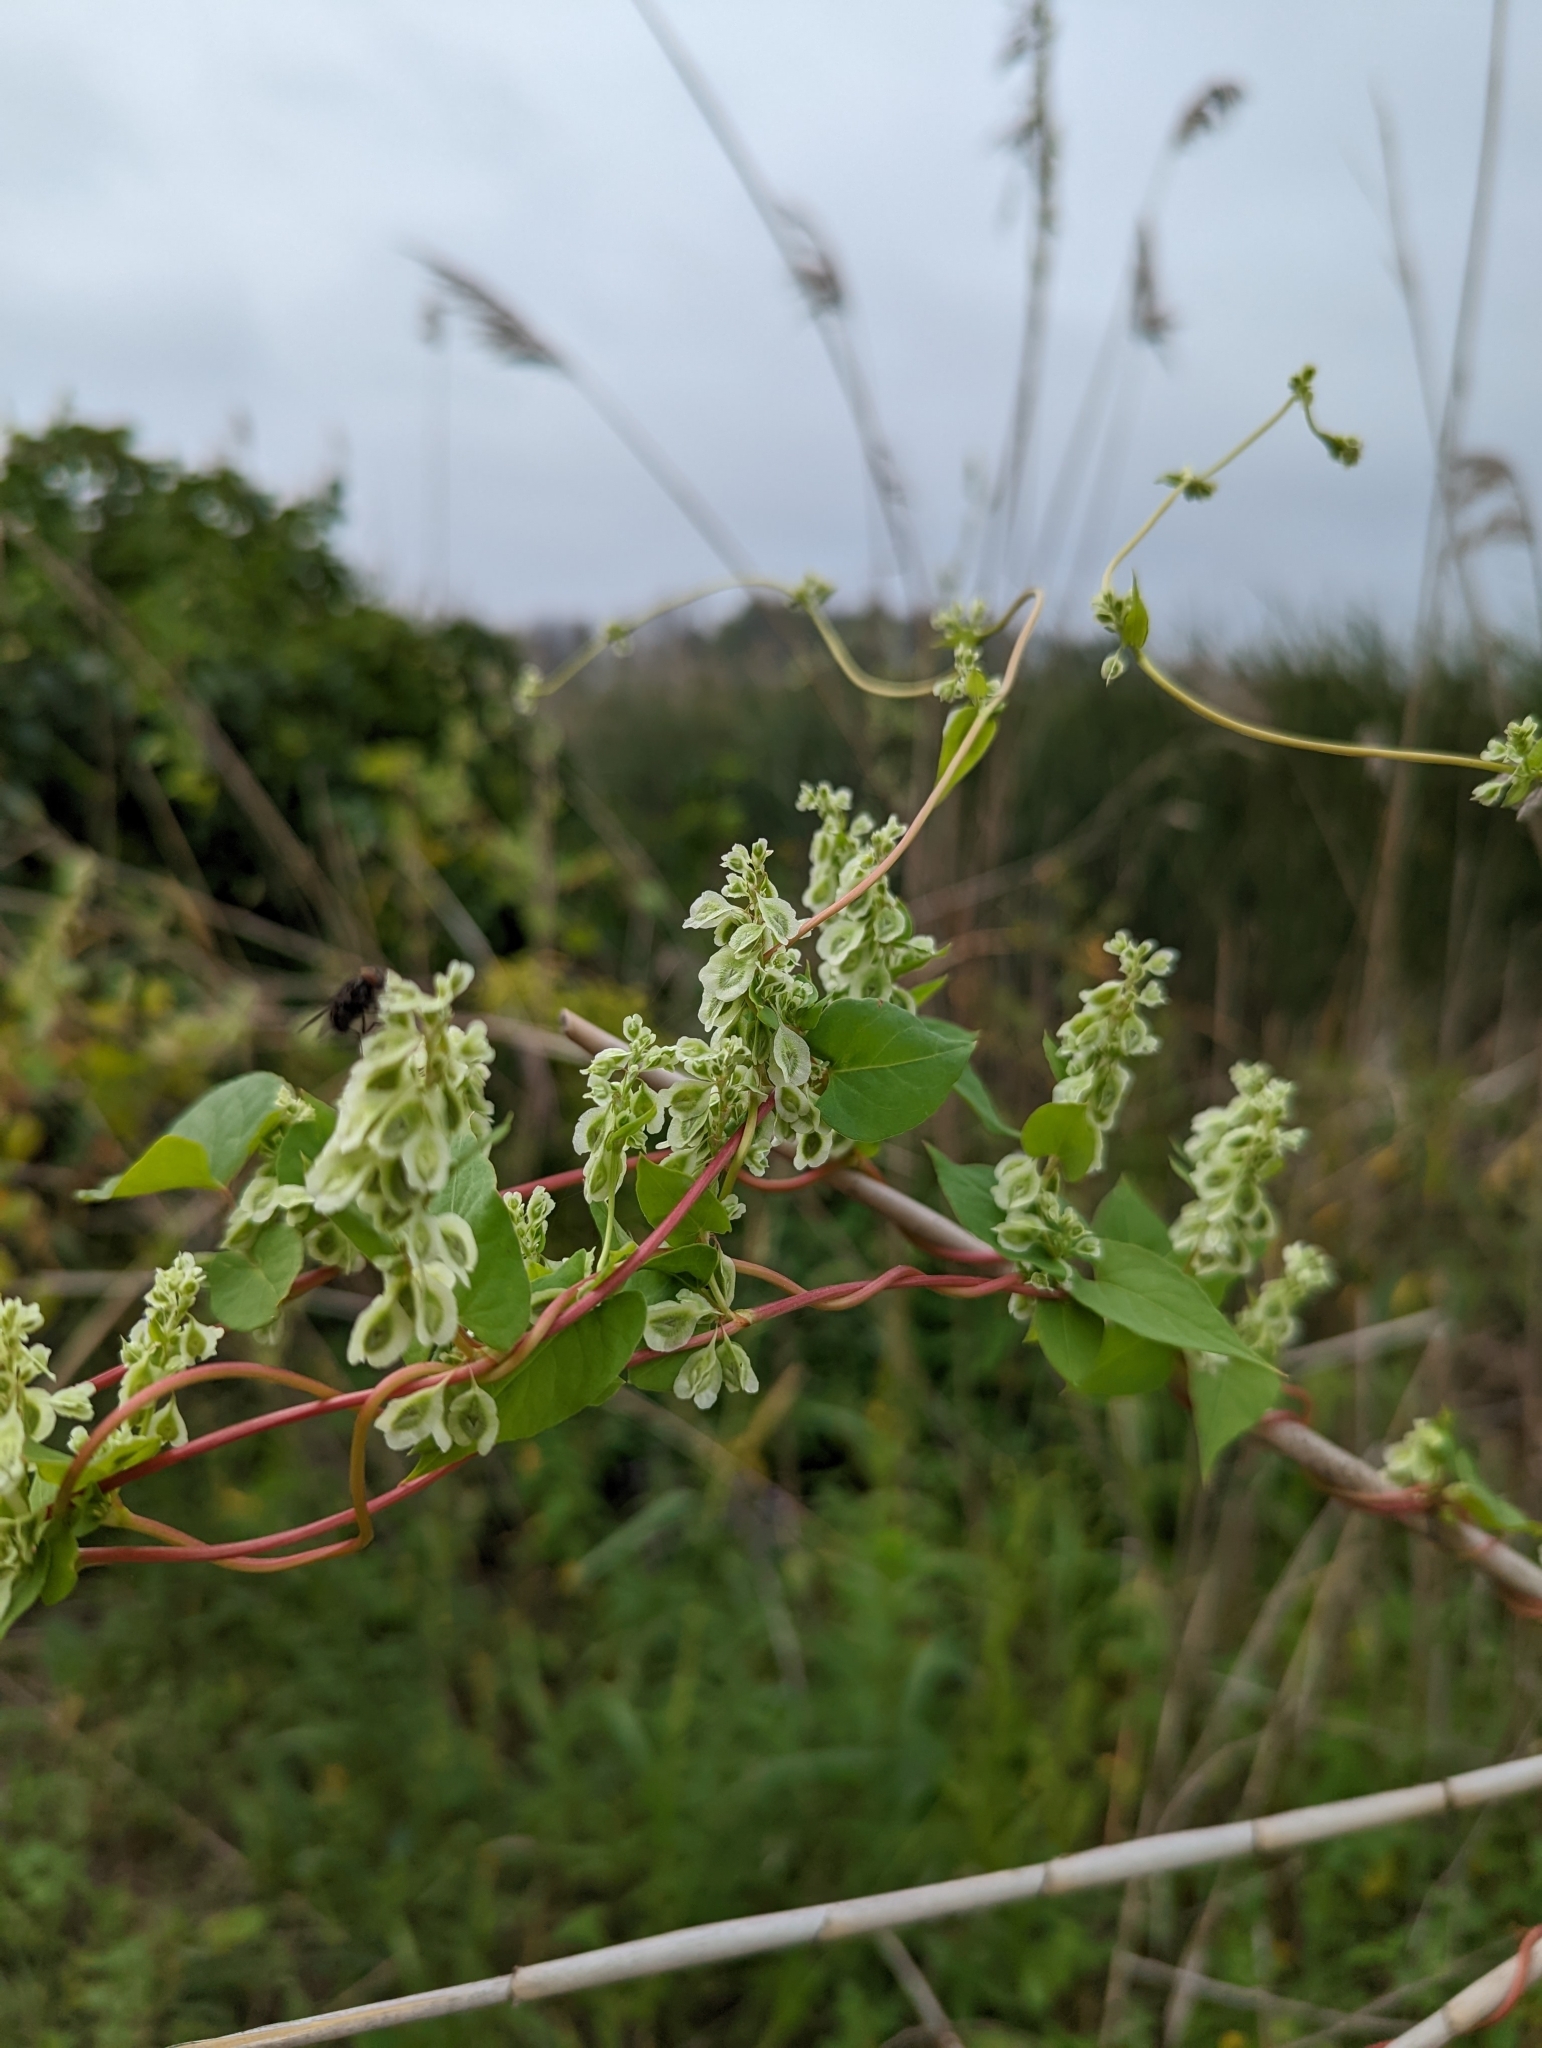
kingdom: Plantae
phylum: Tracheophyta
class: Magnoliopsida
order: Caryophyllales
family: Polygonaceae
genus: Fallopia
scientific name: Fallopia scandens
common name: Climbing false buckwheat
